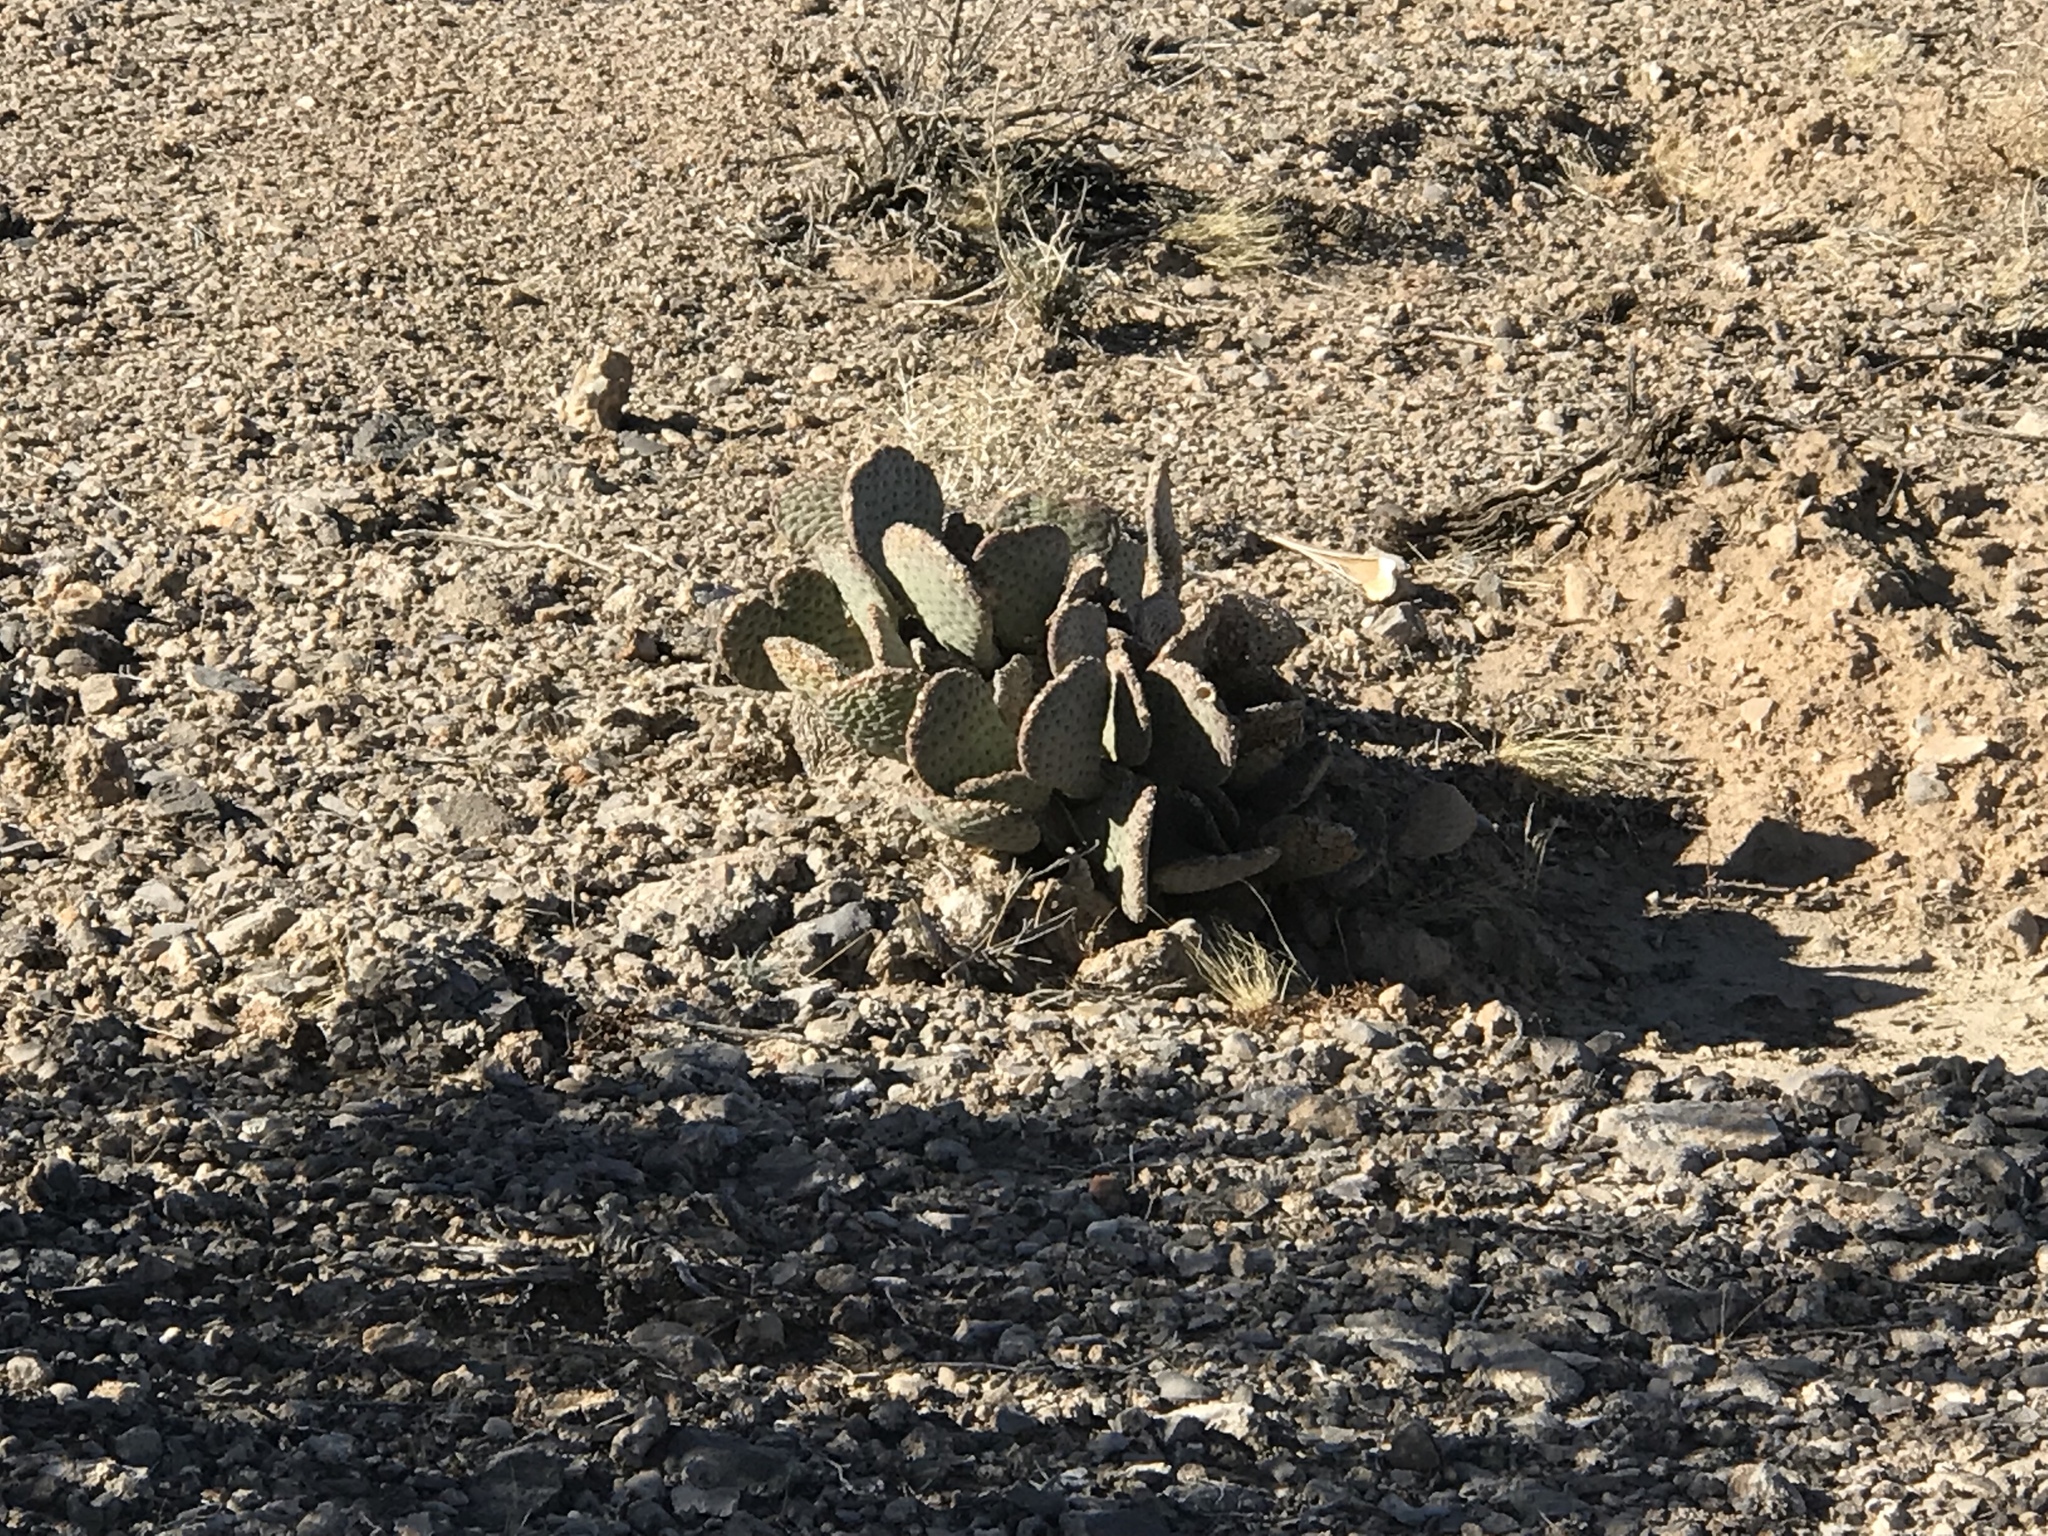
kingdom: Plantae
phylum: Tracheophyta
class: Magnoliopsida
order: Caryophyllales
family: Cactaceae
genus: Opuntia
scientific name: Opuntia basilaris
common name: Beavertail prickly-pear
